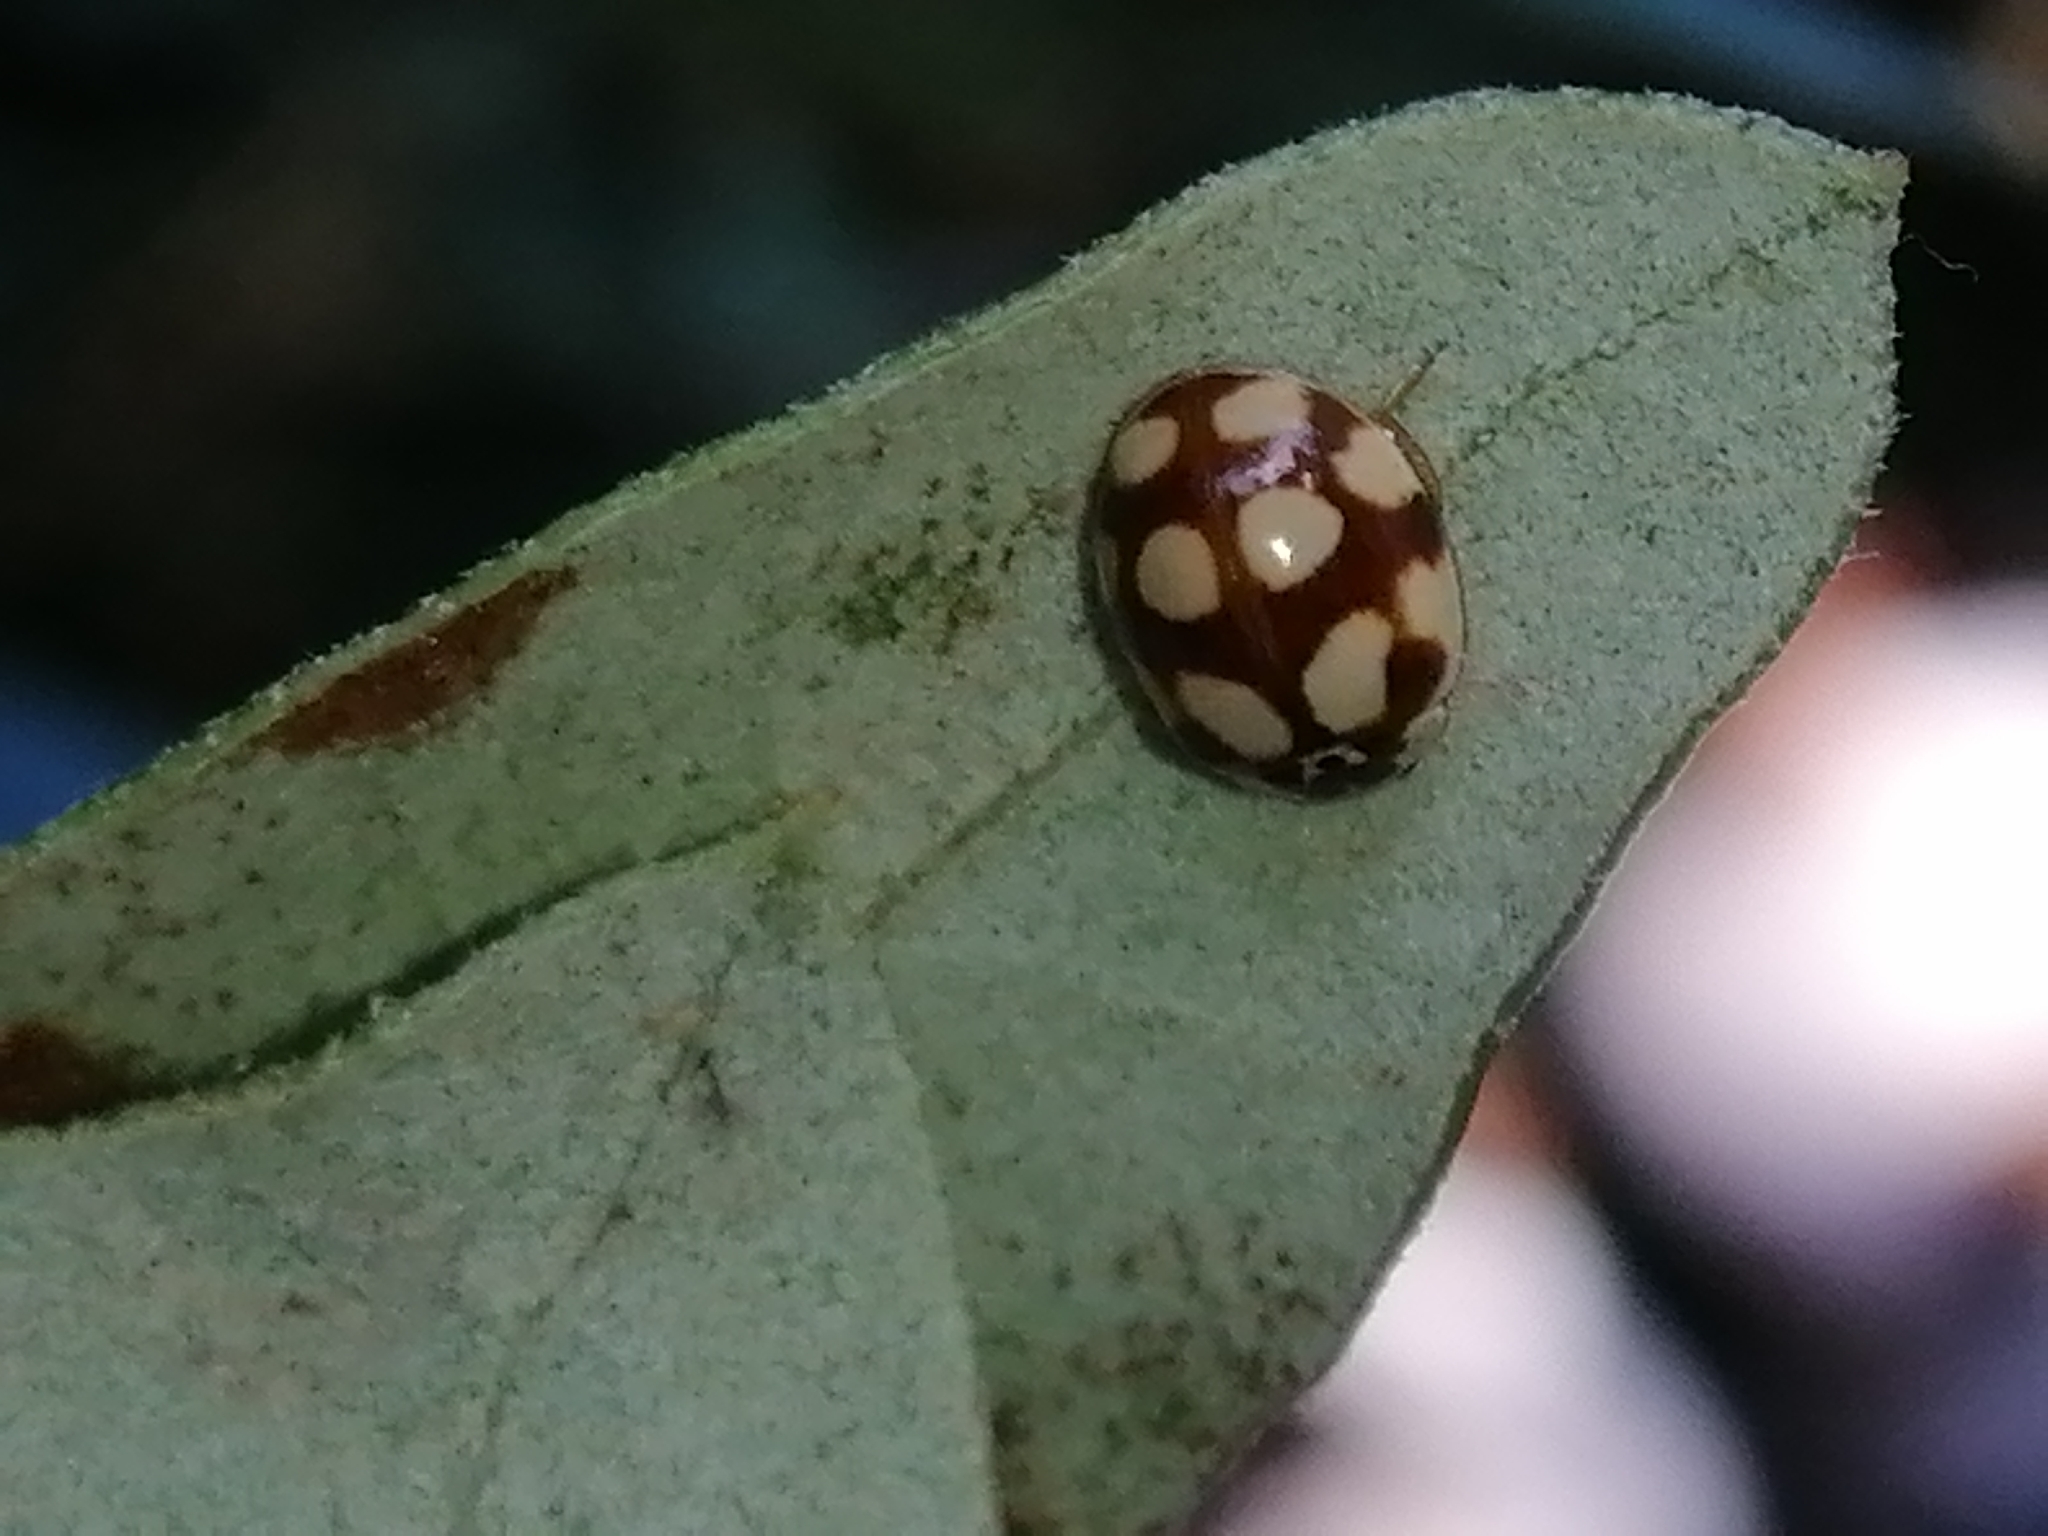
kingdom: Animalia
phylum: Arthropoda
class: Insecta
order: Coleoptera
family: Coccinellidae
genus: Adalia
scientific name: Adalia decempunctata
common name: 10-spot ladybird
